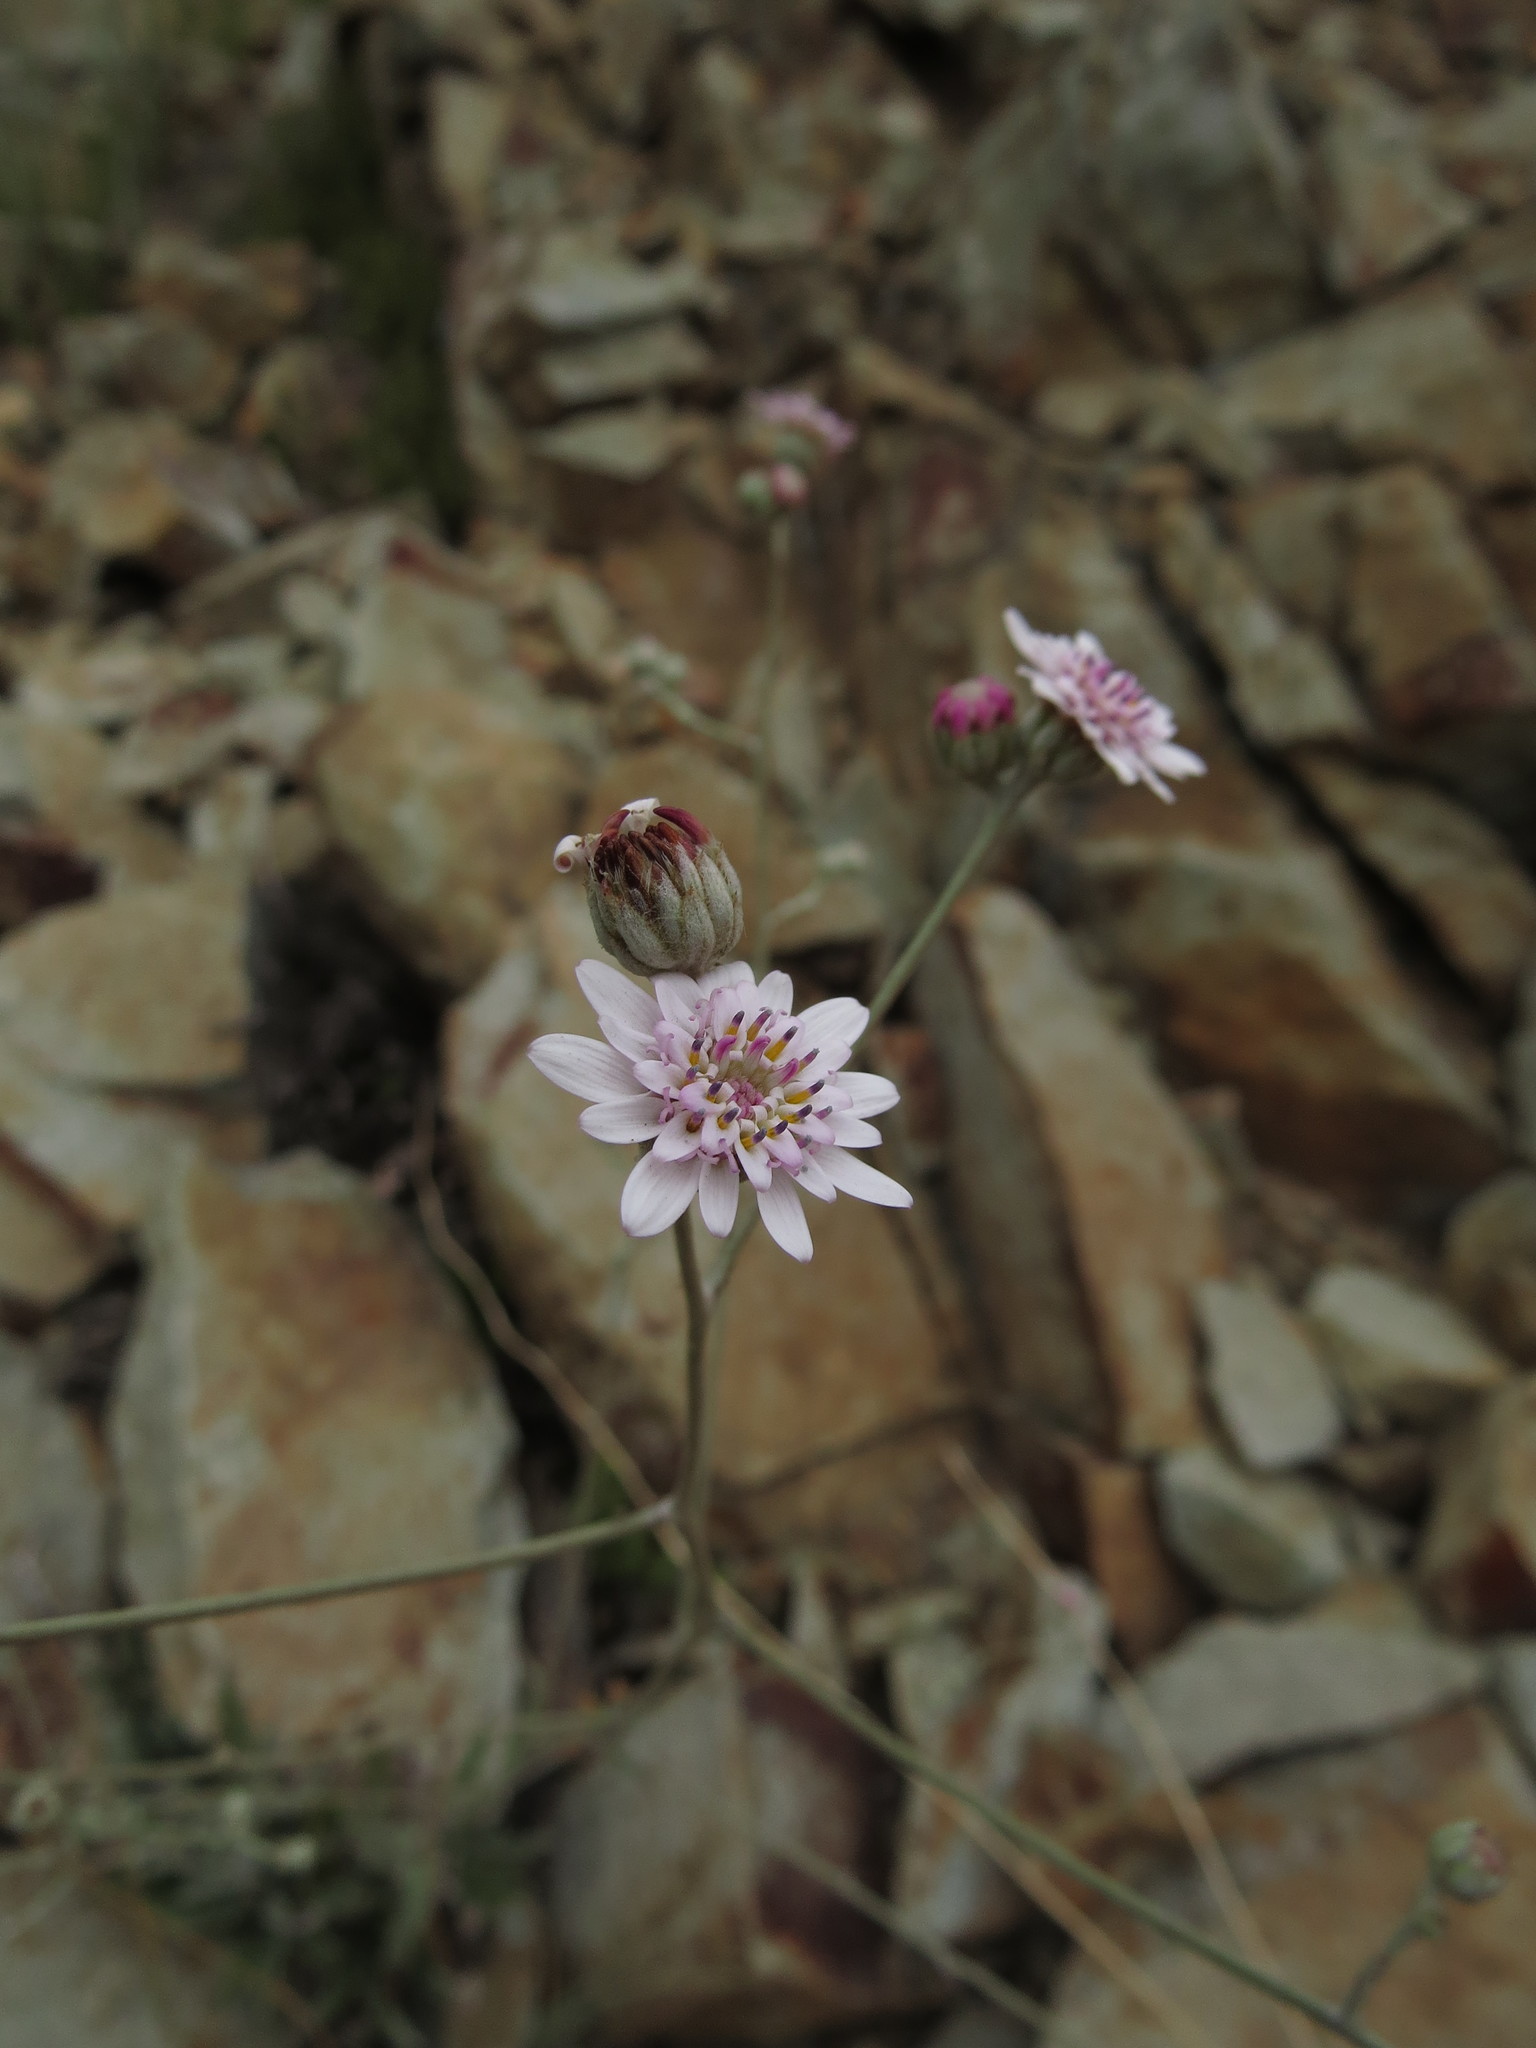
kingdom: Plantae
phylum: Tracheophyta
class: Magnoliopsida
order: Asterales
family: Asteraceae
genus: Leucheria
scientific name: Leucheria rosea
